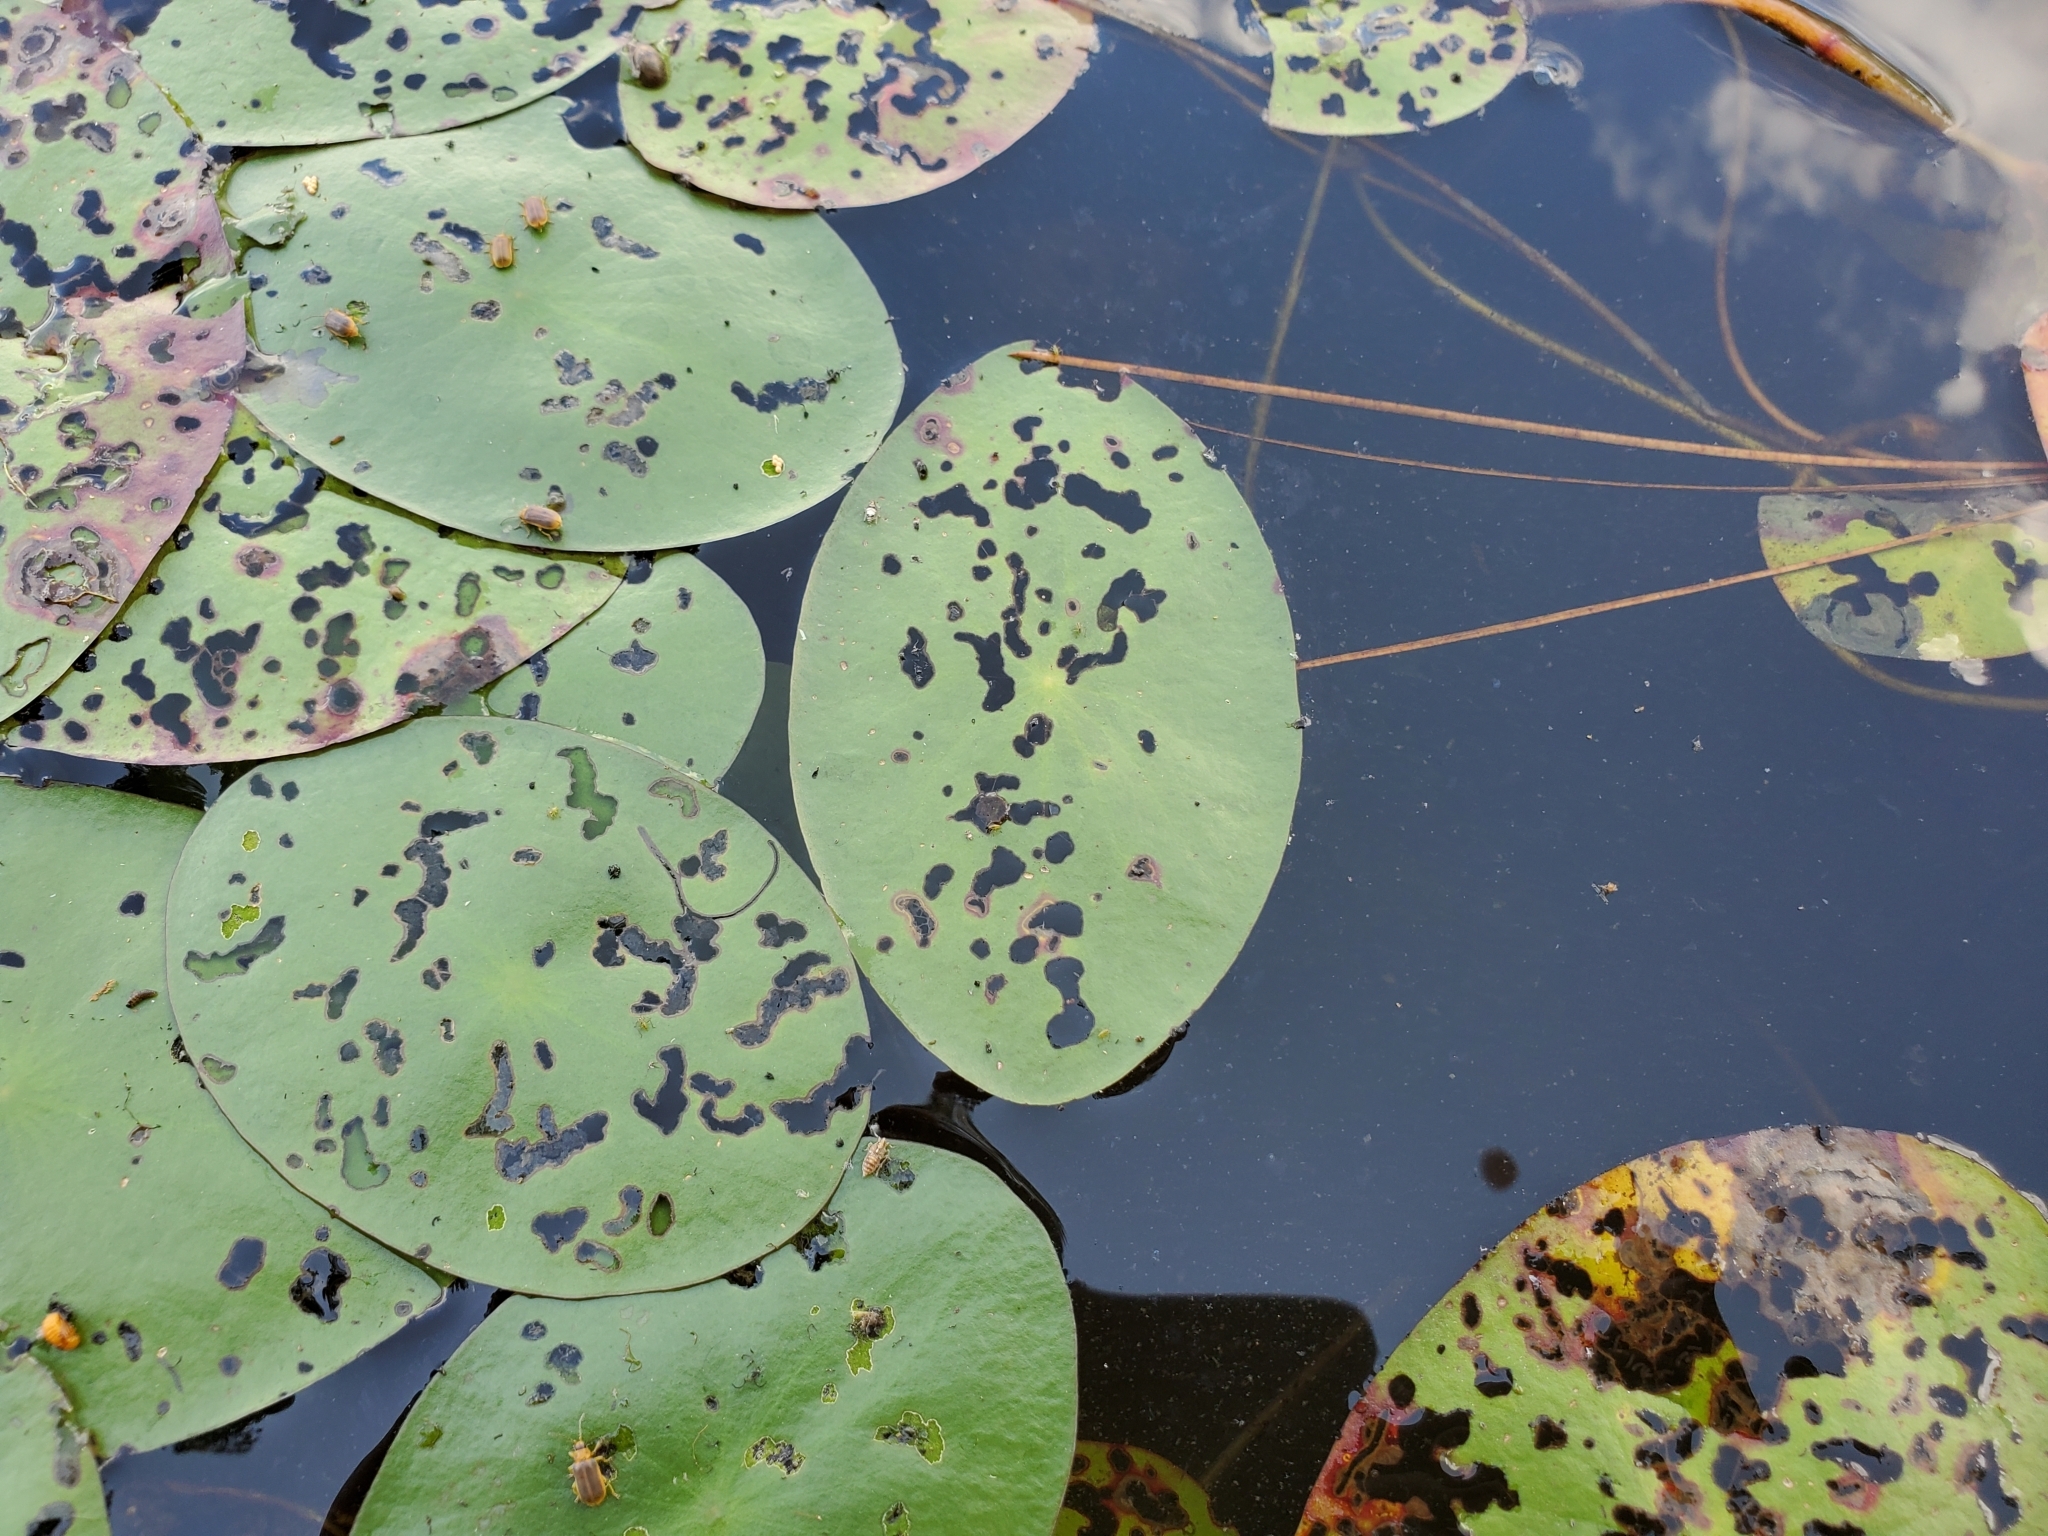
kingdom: Plantae
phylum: Tracheophyta
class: Magnoliopsida
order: Nymphaeales
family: Cabombaceae
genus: Brasenia
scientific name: Brasenia schreberi
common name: Water-shield
